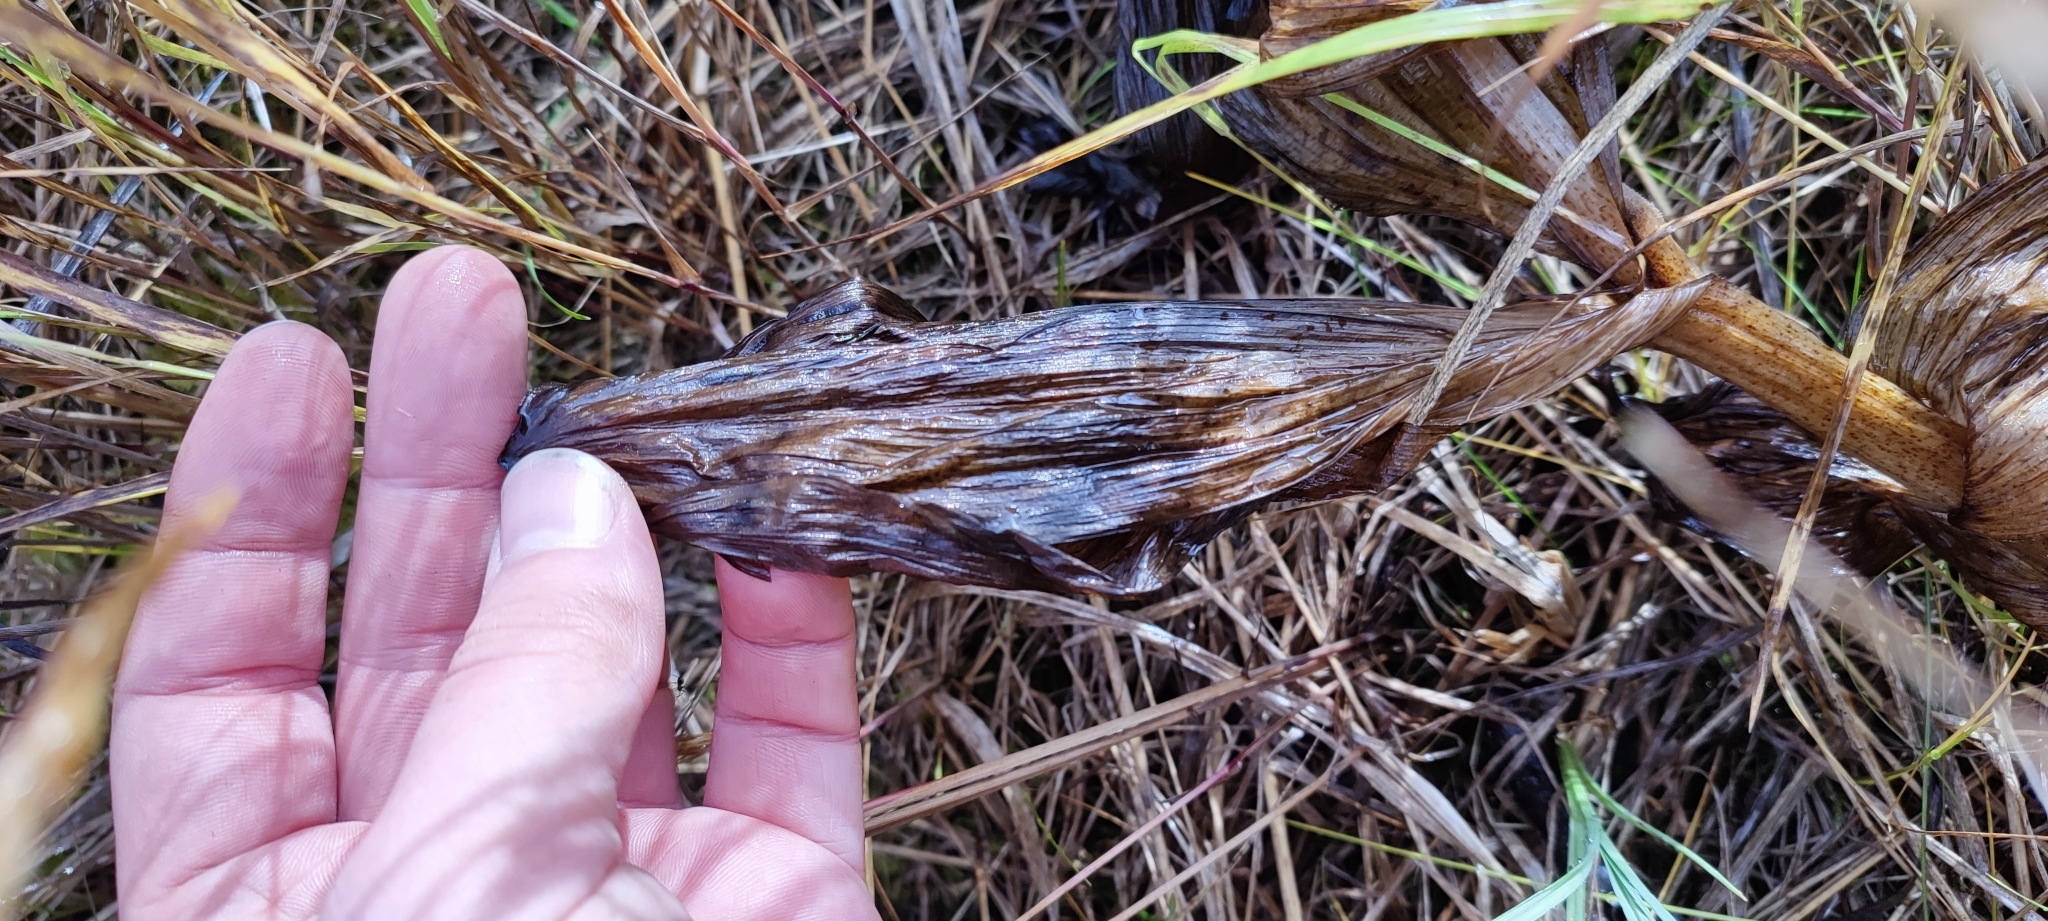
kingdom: Plantae
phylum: Tracheophyta
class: Liliopsida
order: Liliales
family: Melanthiaceae
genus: Veratrum
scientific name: Veratrum lobelianum
